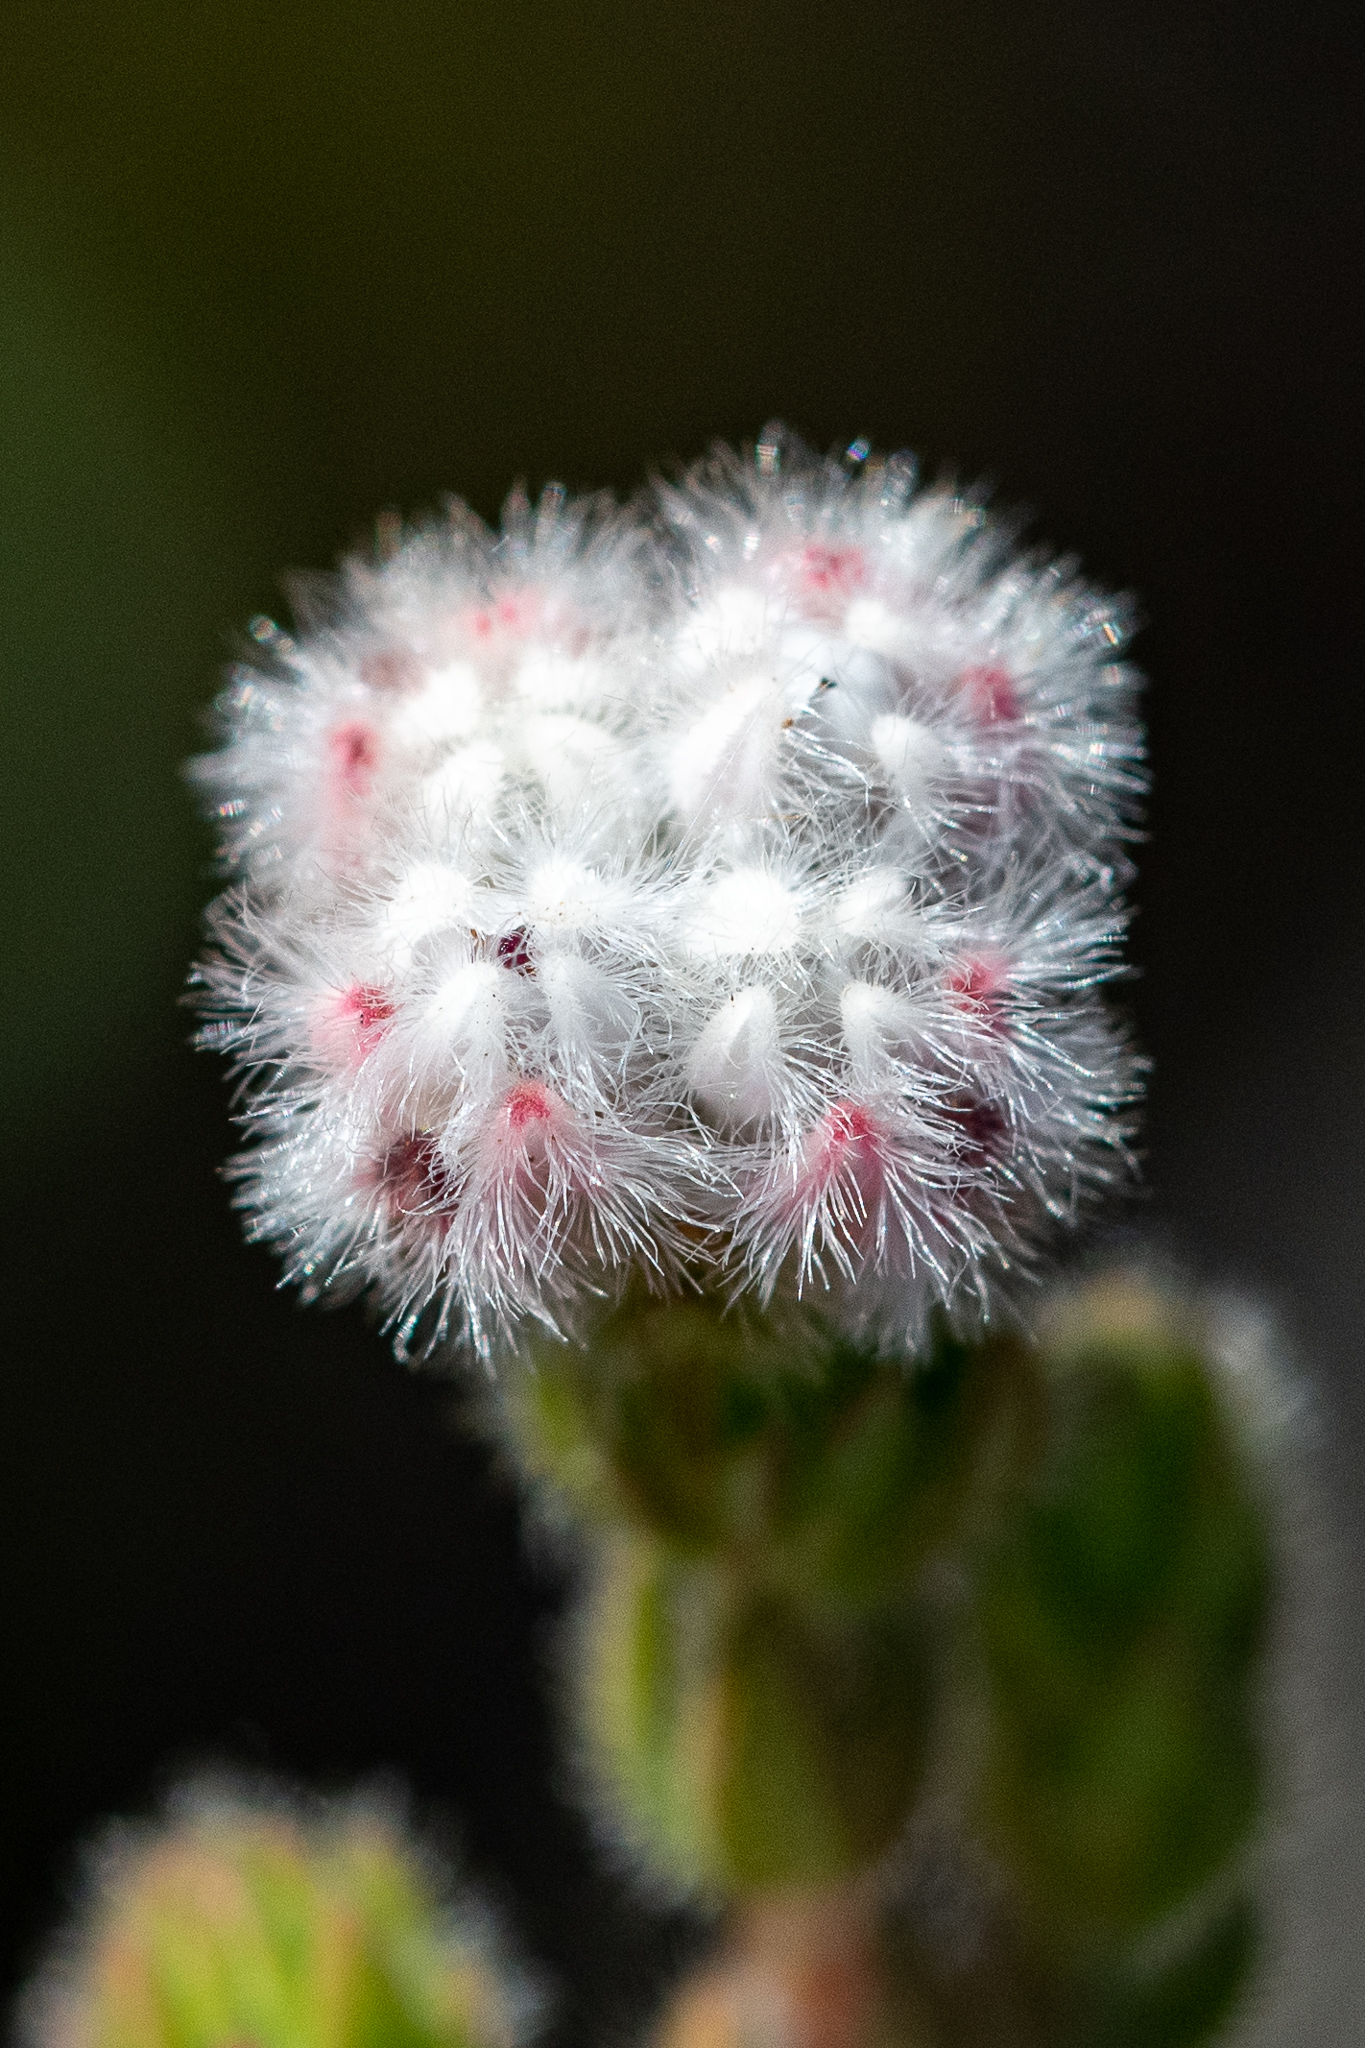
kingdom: Plantae
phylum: Tracheophyta
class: Magnoliopsida
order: Ericales
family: Ericaceae
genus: Erica
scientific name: Erica flaccida
